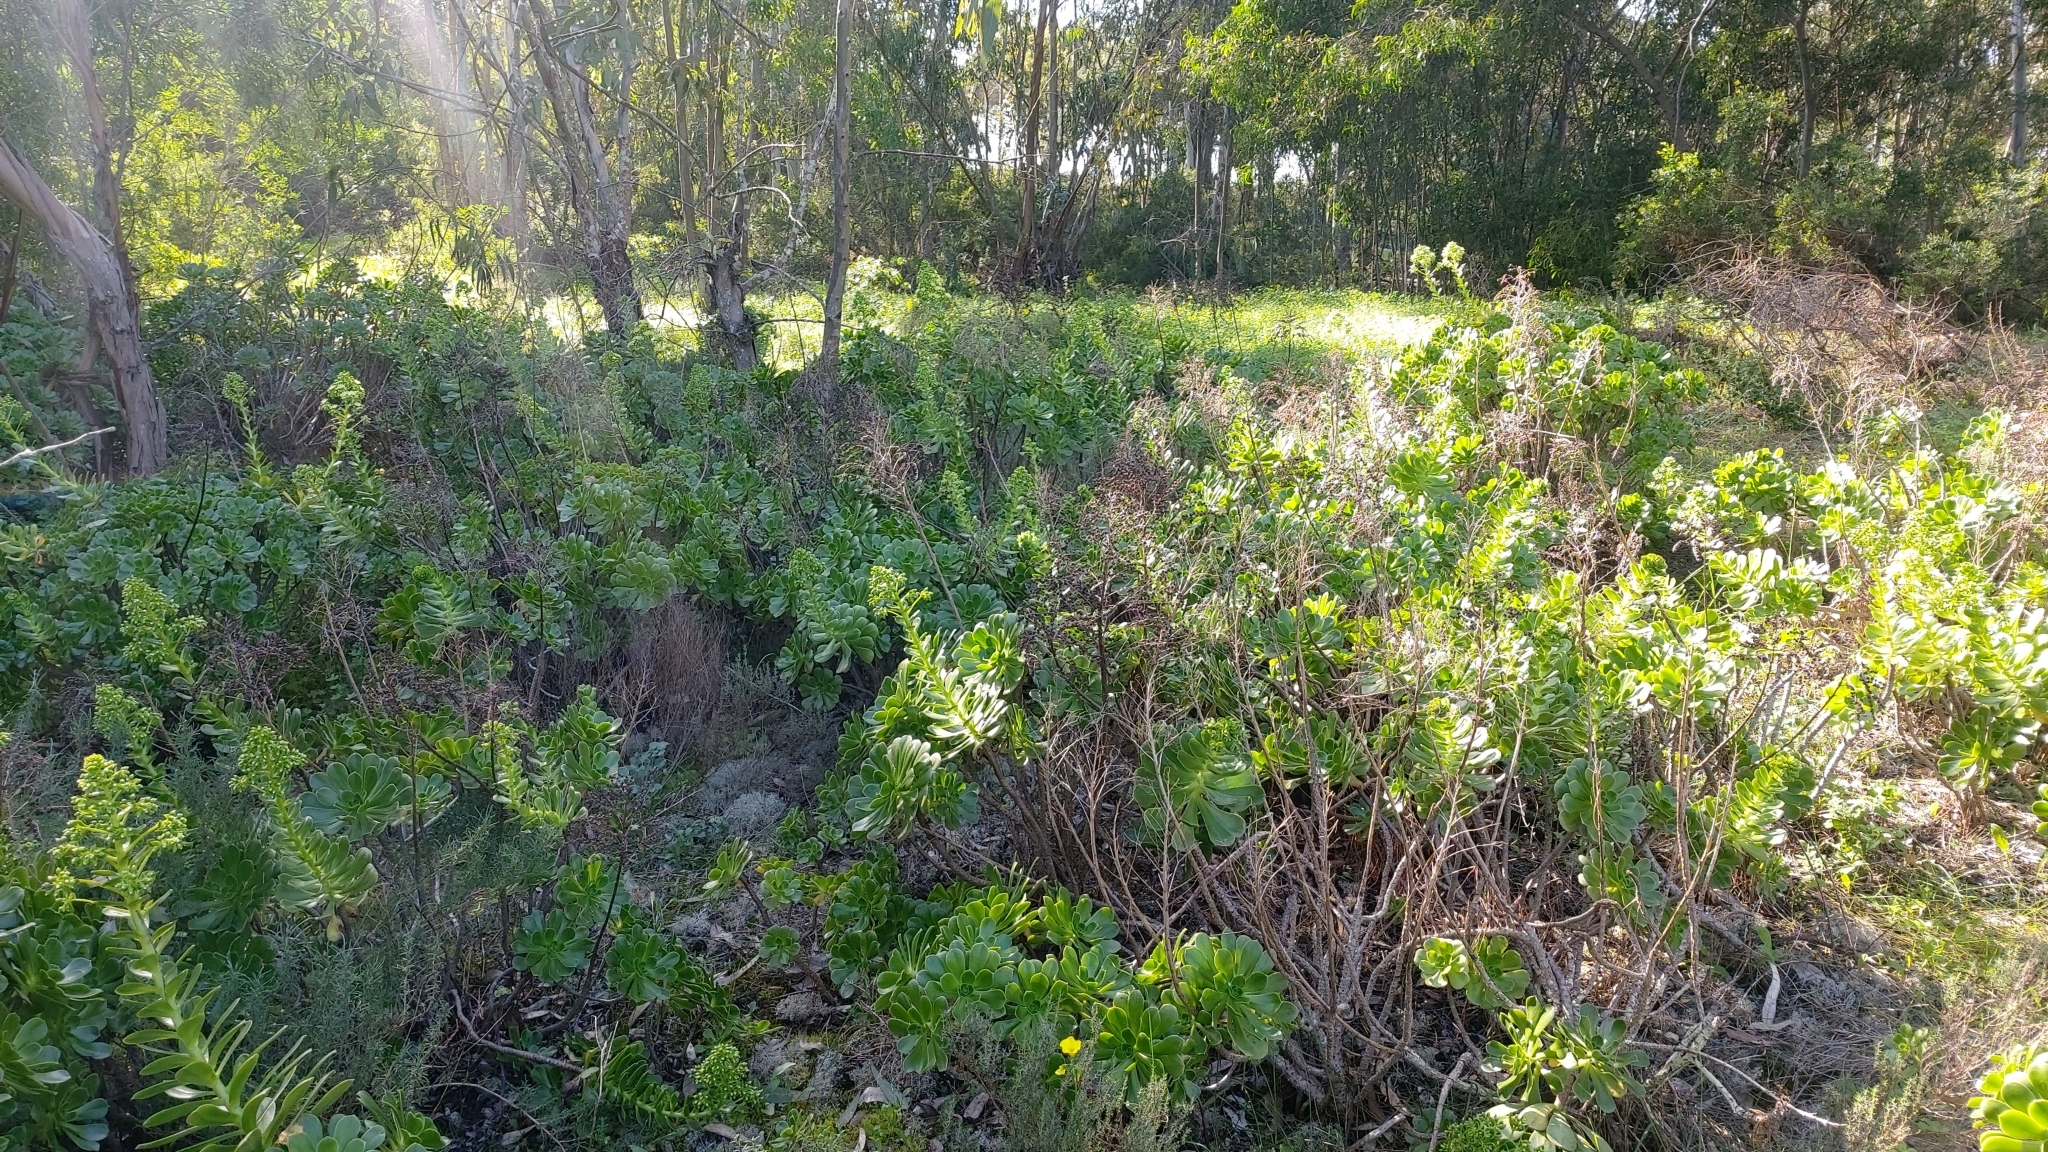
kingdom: Plantae
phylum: Tracheophyta
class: Magnoliopsida
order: Saxifragales
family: Crassulaceae
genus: Aeonium
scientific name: Aeonium arboreum
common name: Tree aeonium
